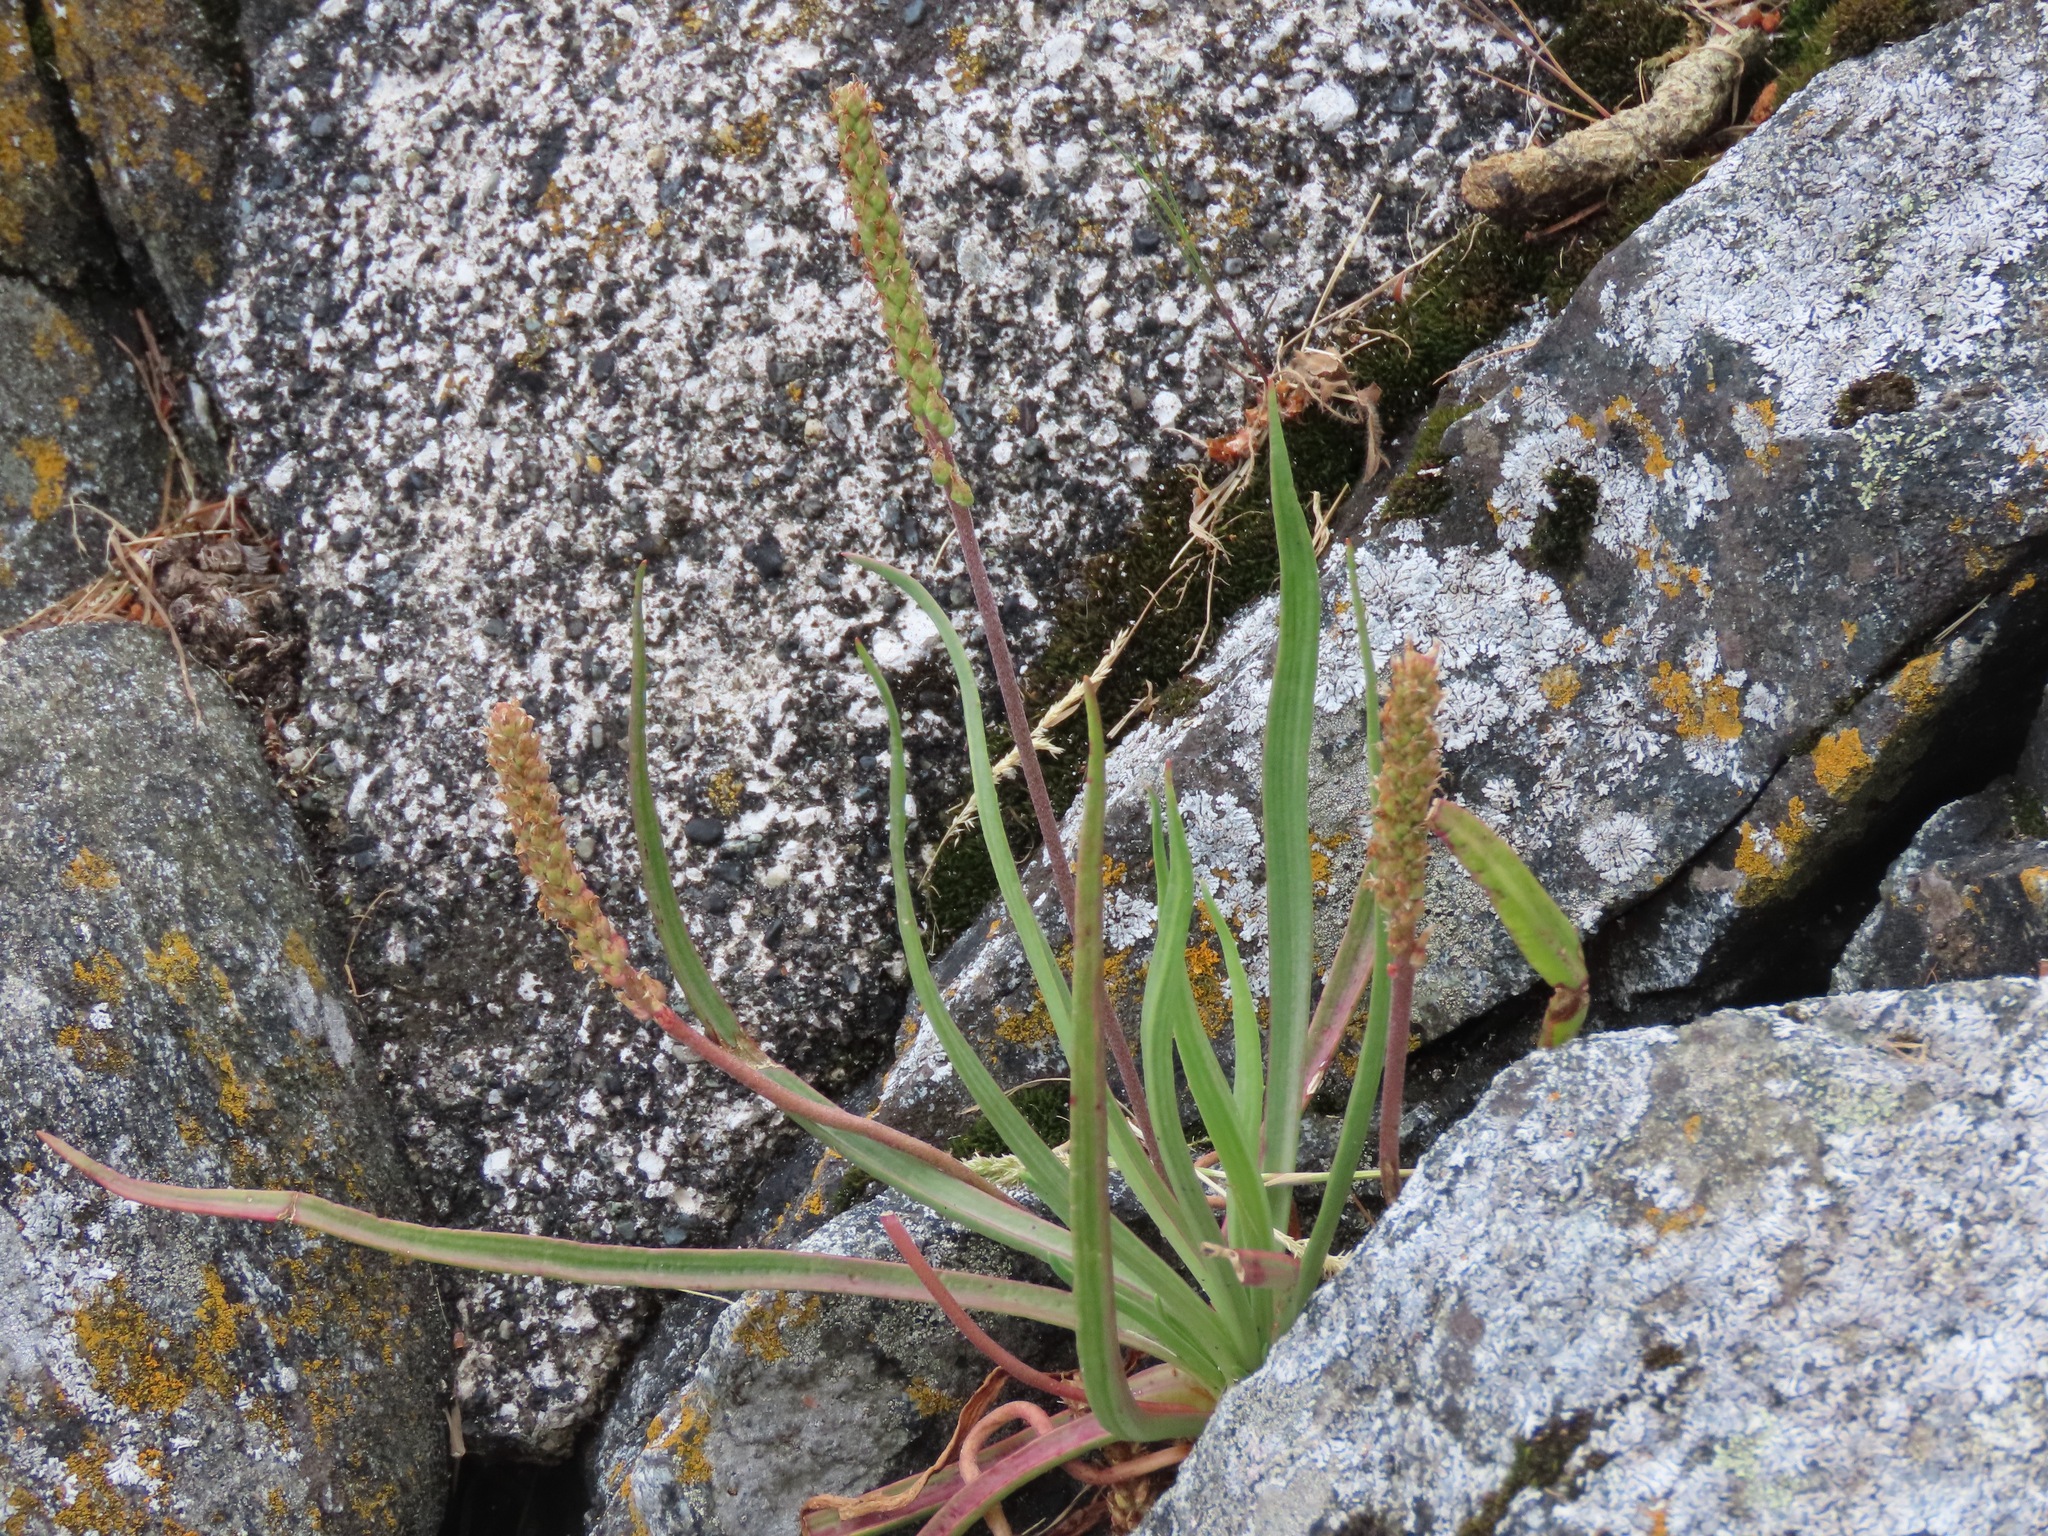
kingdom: Plantae
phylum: Tracheophyta
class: Magnoliopsida
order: Lamiales
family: Plantaginaceae
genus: Plantago
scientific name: Plantago maritima
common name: Sea plantain
